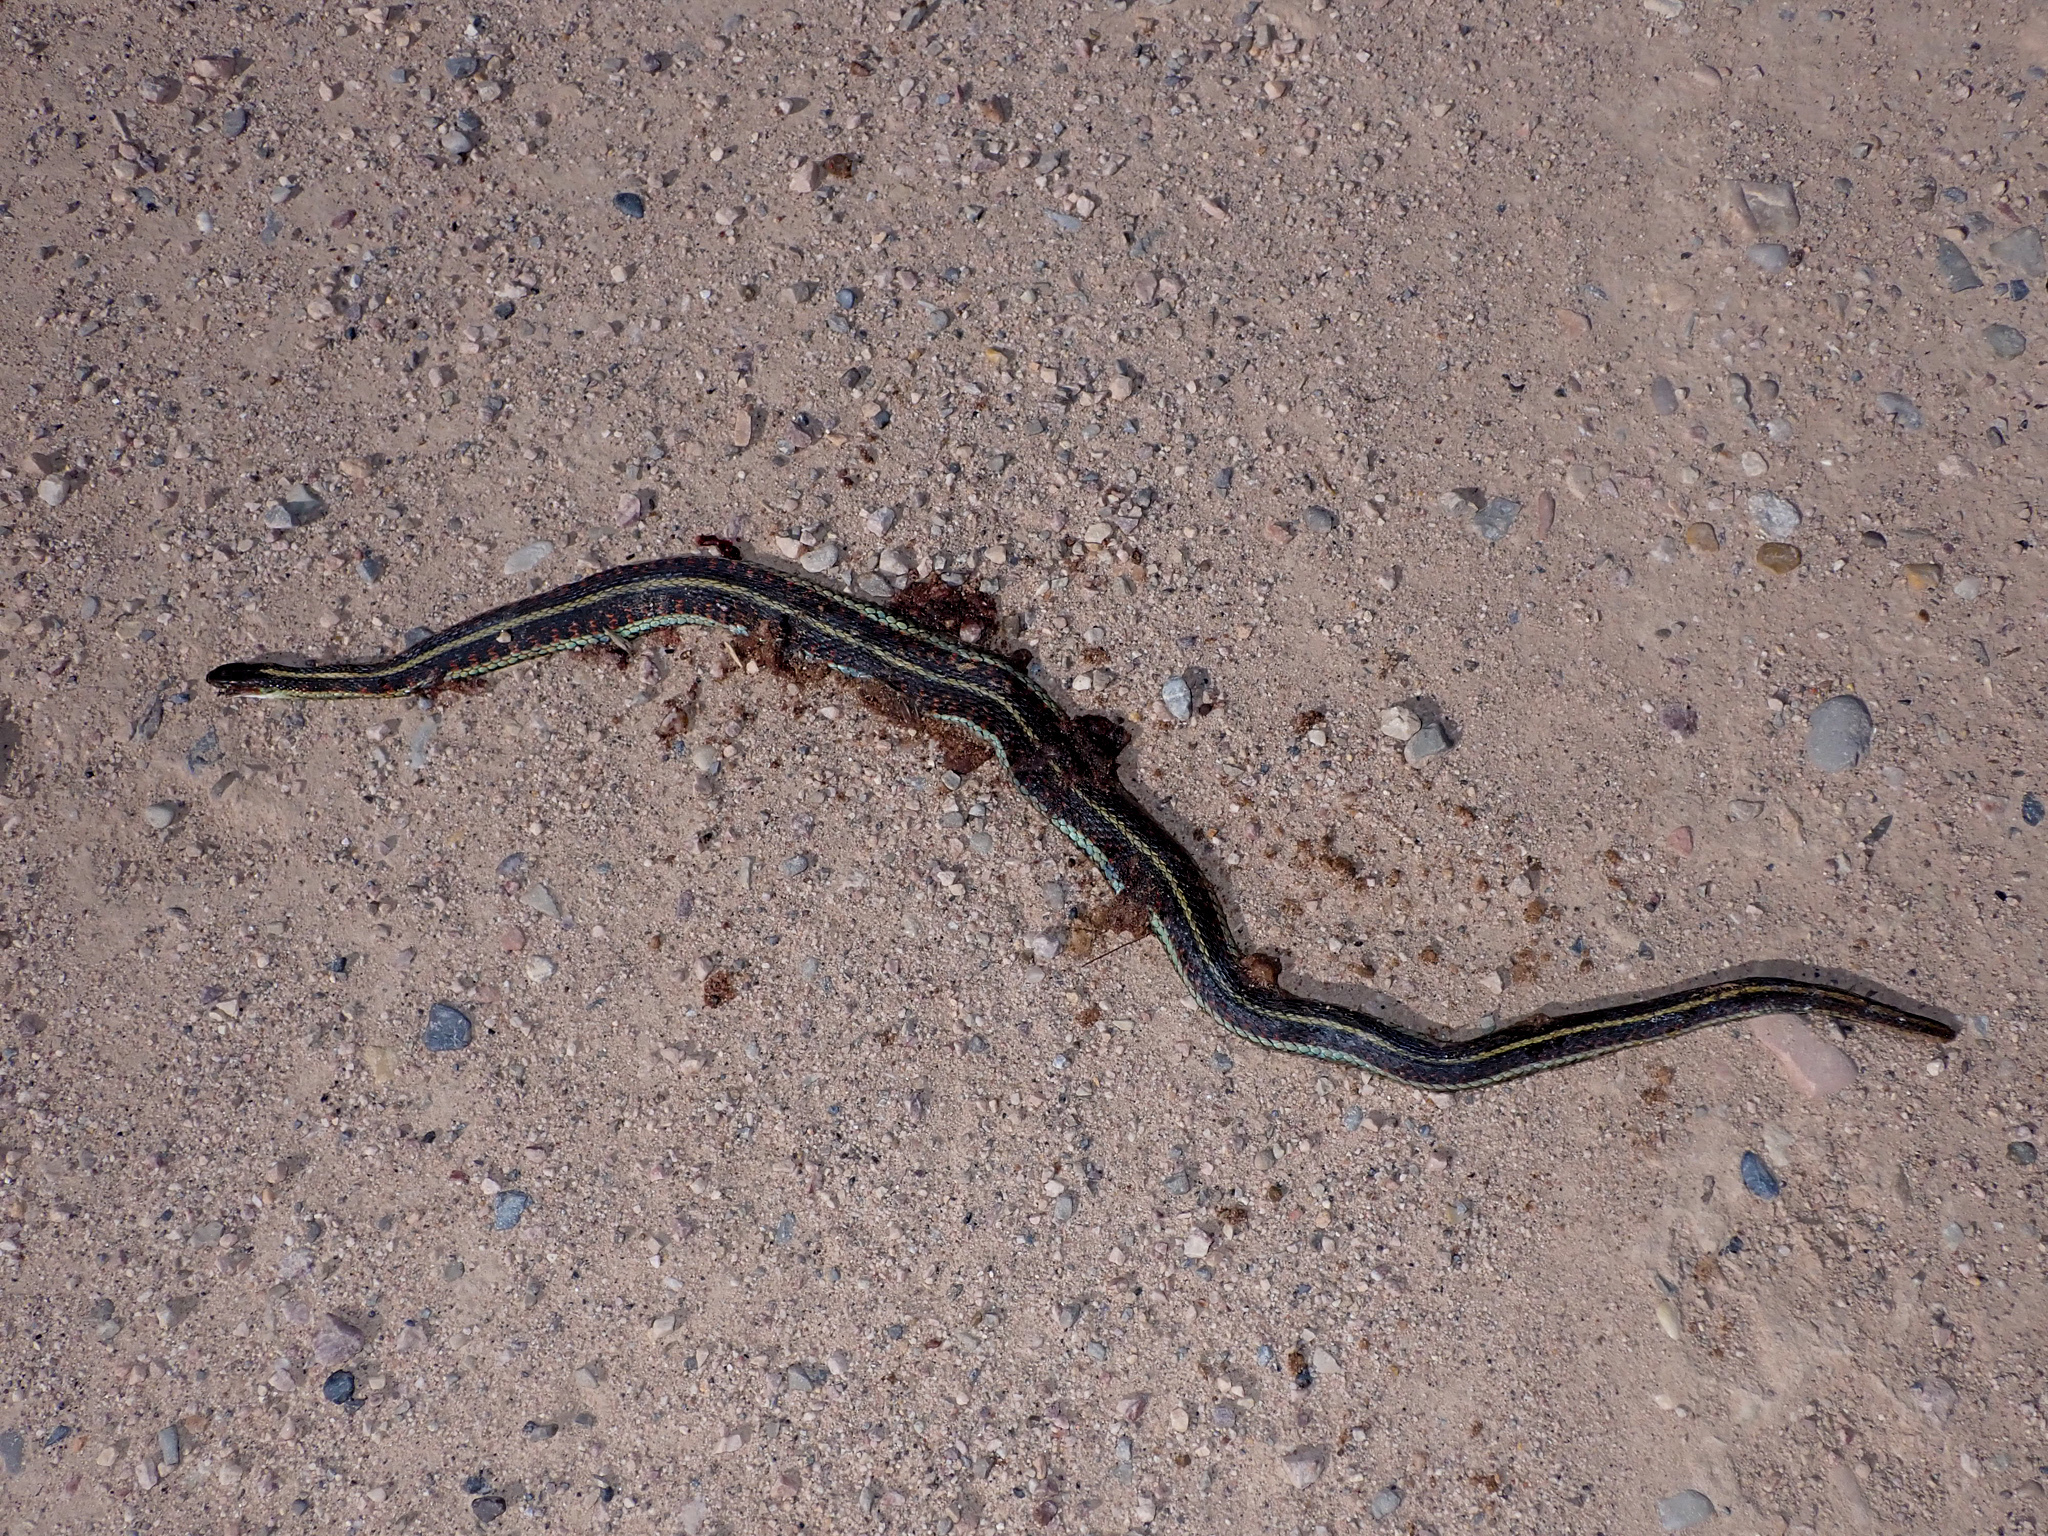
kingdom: Animalia
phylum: Chordata
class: Squamata
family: Colubridae
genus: Thamnophis
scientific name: Thamnophis sirtalis
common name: Common garter snake
